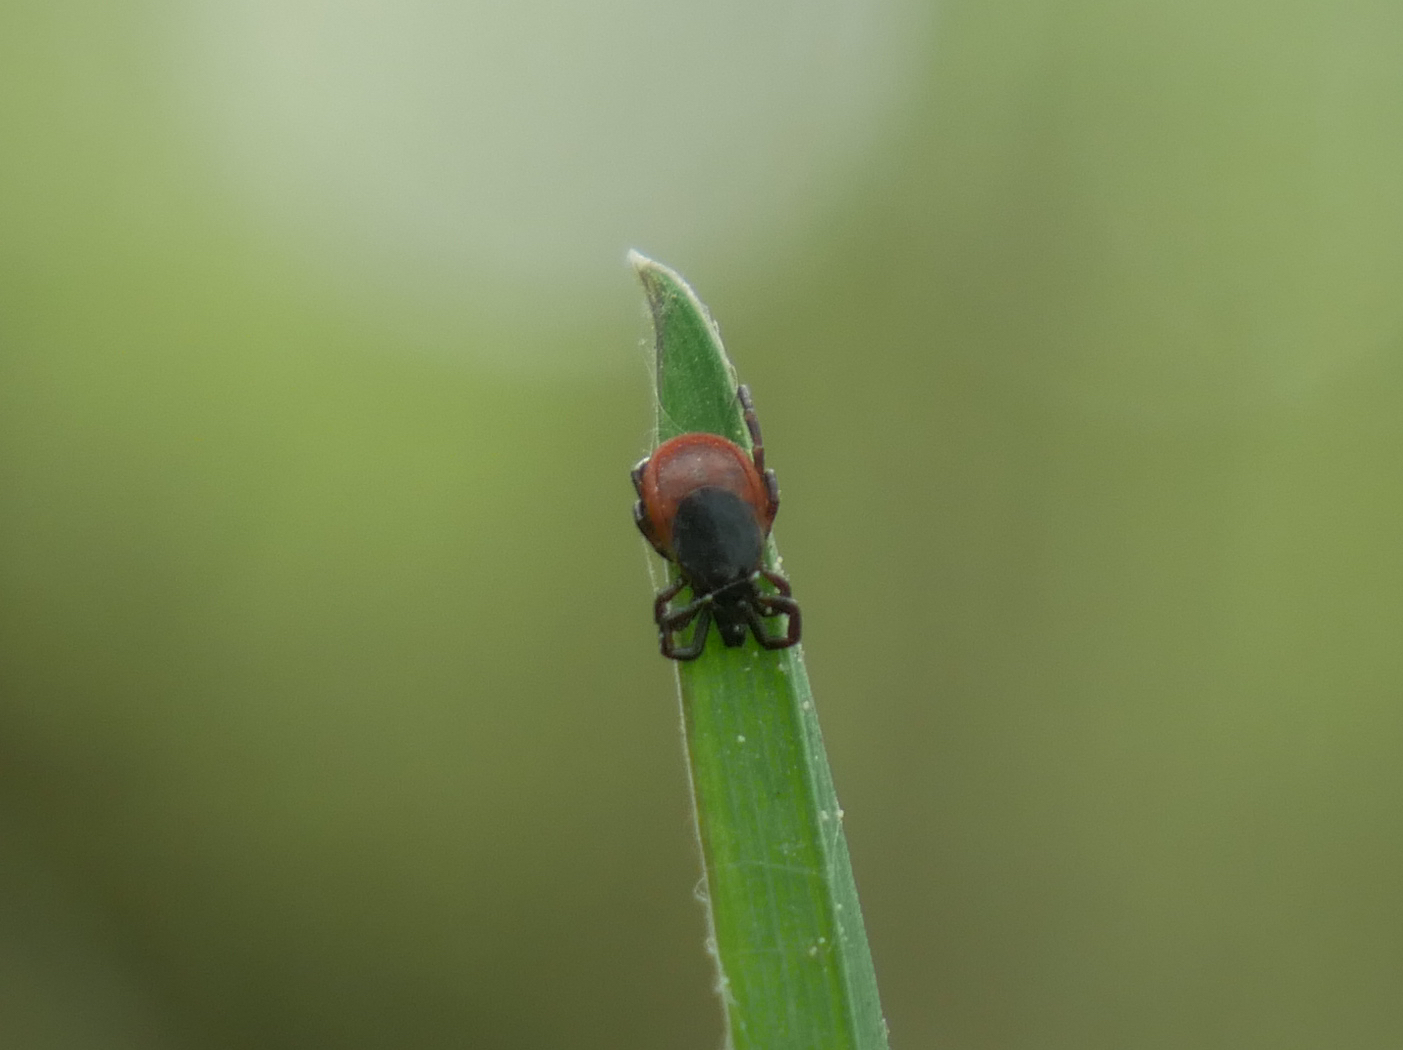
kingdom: Animalia
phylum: Arthropoda
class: Arachnida
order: Ixodida
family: Ixodidae
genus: Ixodes
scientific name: Ixodes ricinus
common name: Castor bean tick
